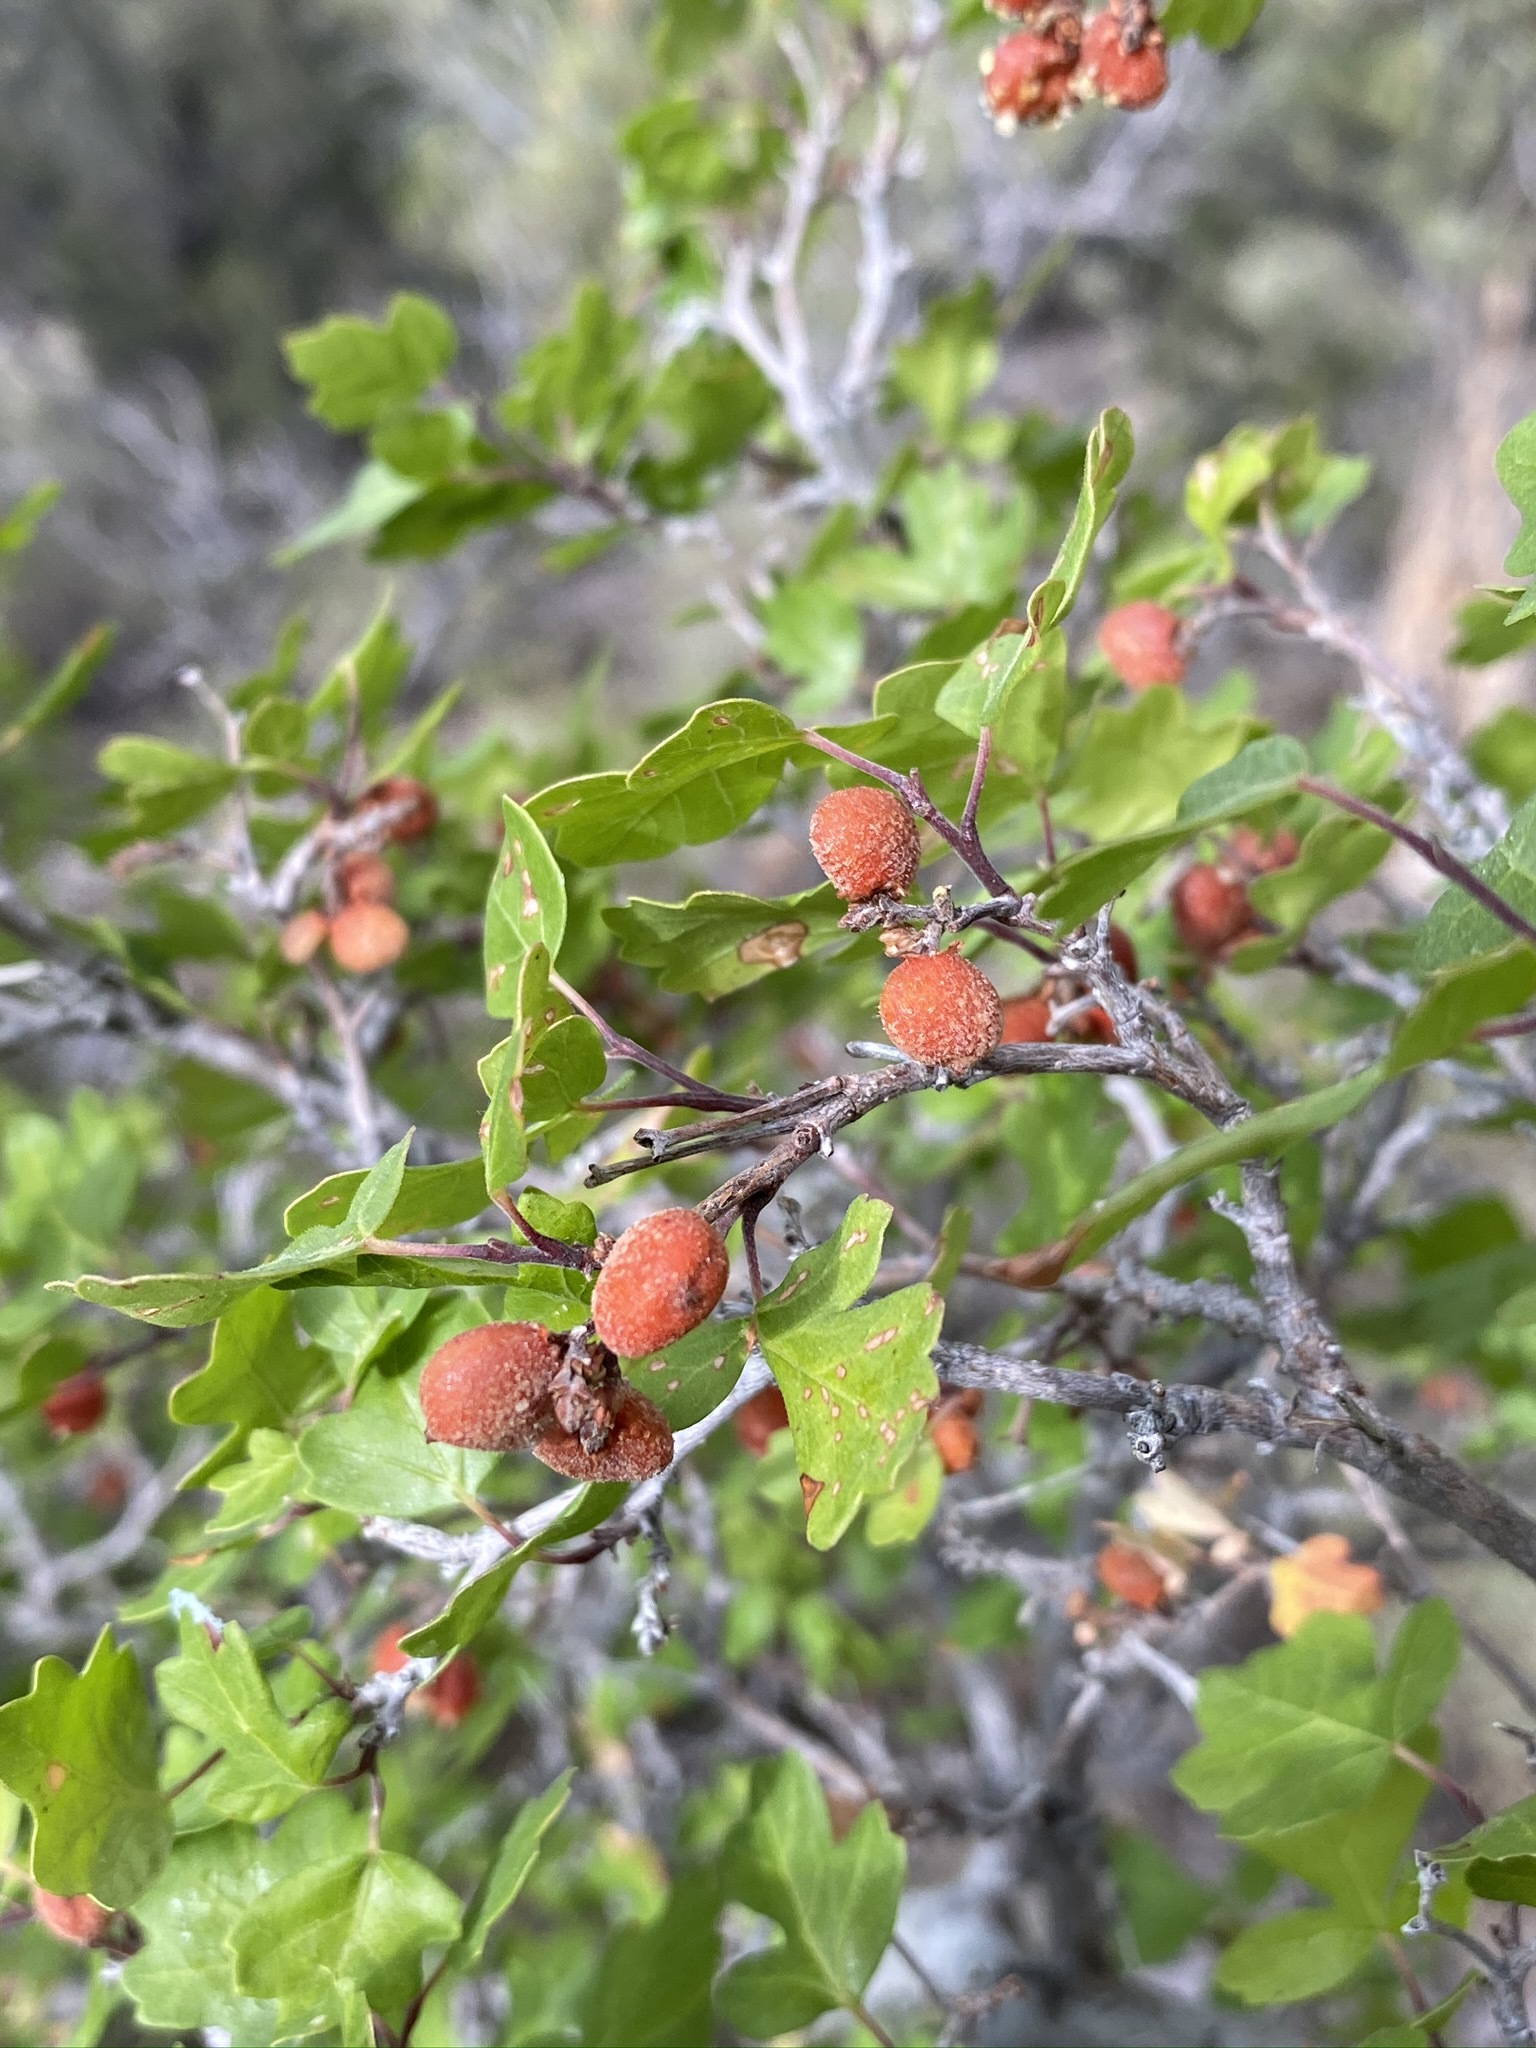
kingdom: Plantae
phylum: Tracheophyta
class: Magnoliopsida
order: Sapindales
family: Anacardiaceae
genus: Rhus
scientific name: Rhus aromatica
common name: Aromatic sumac
